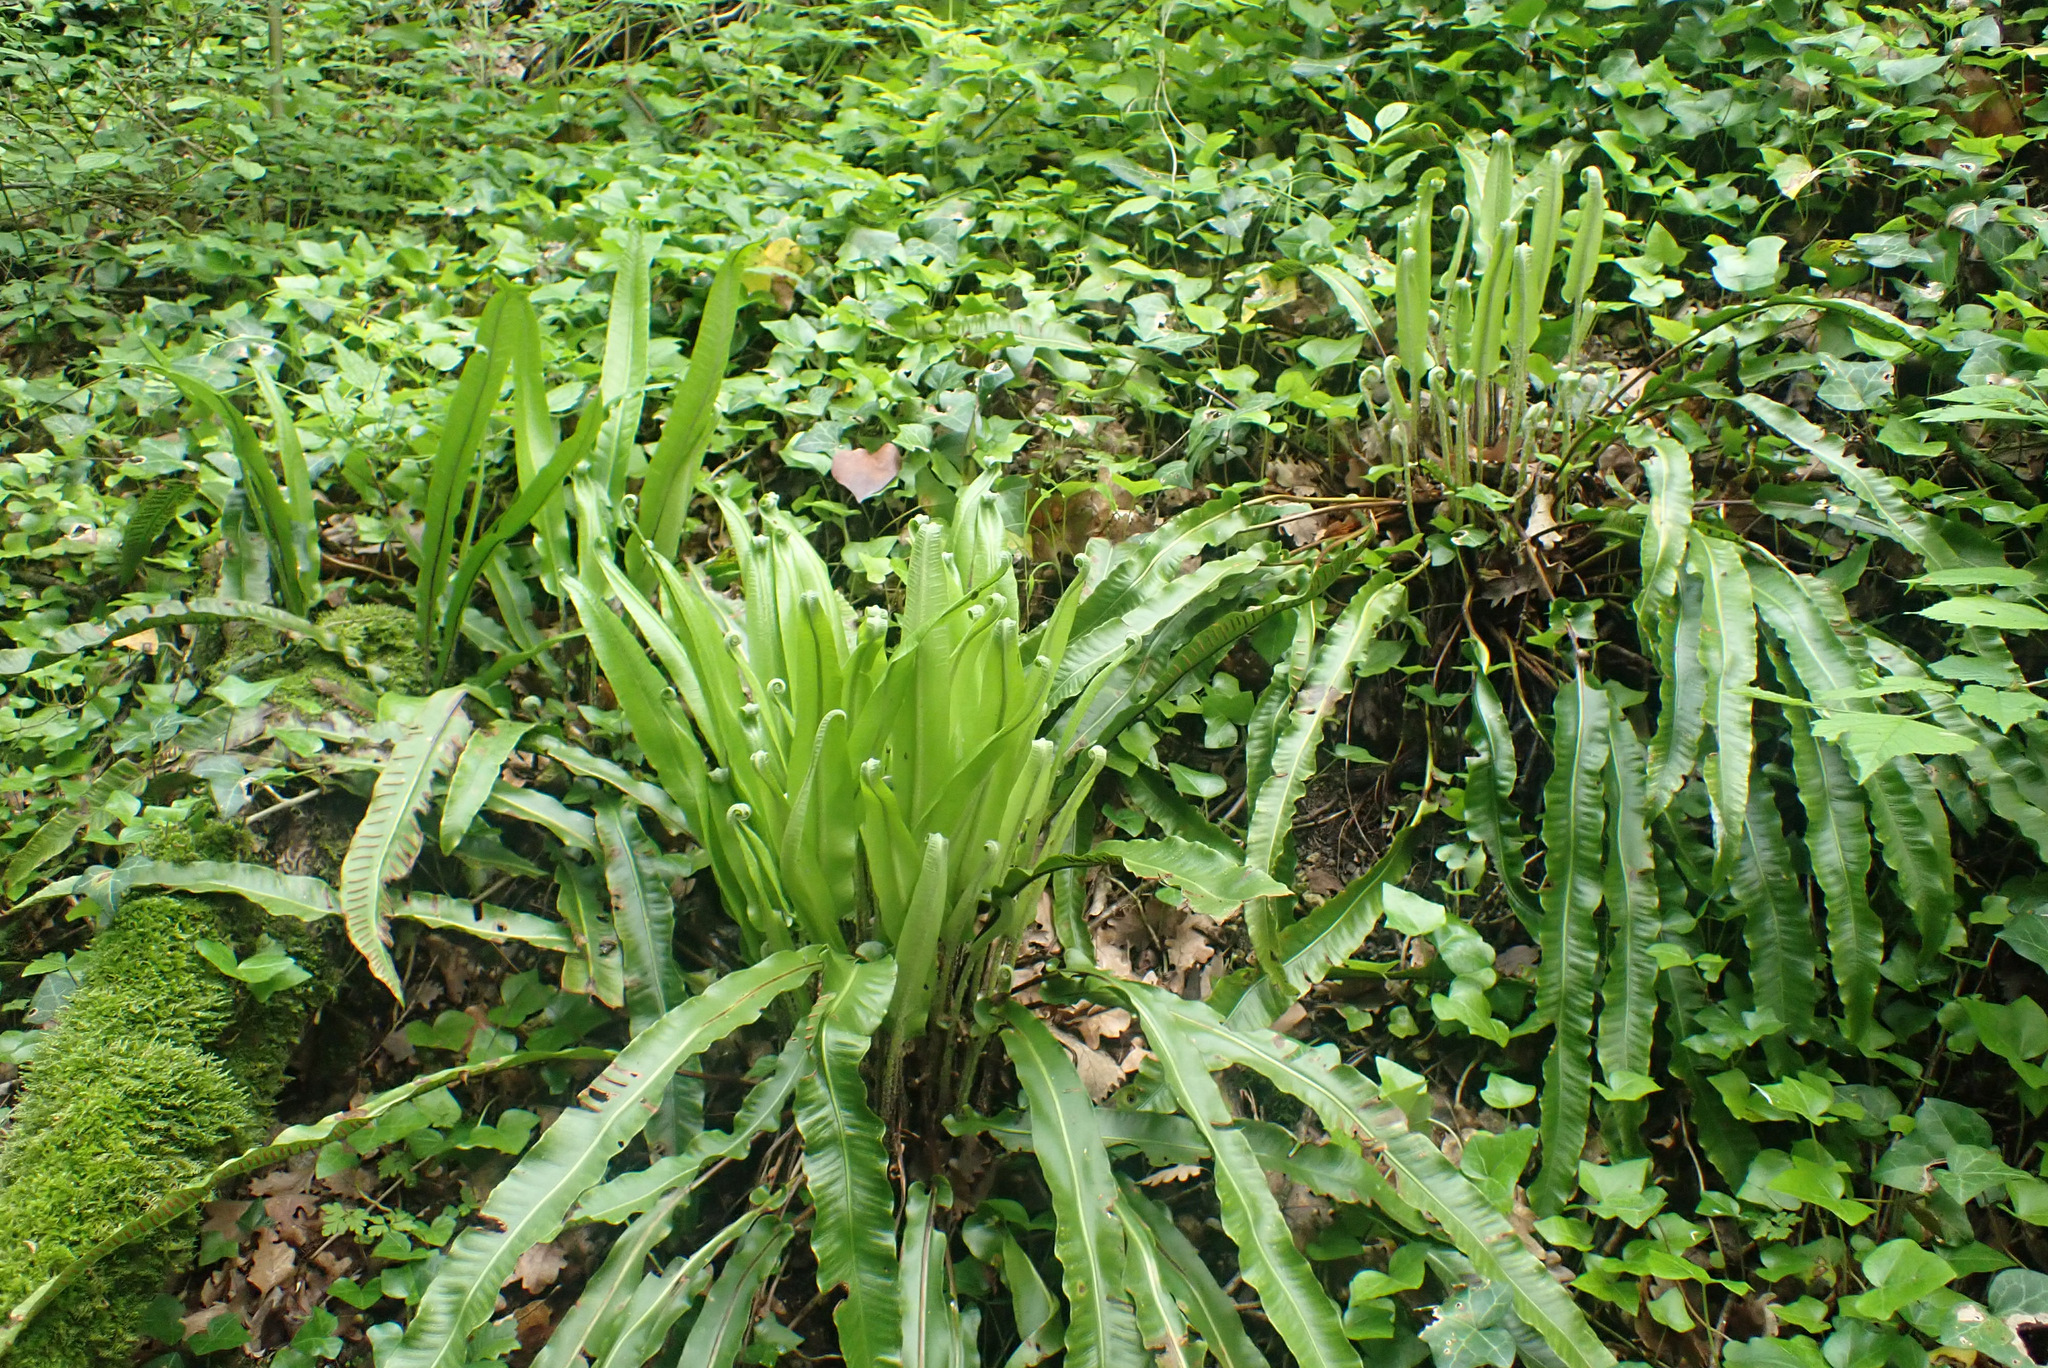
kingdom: Plantae
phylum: Tracheophyta
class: Polypodiopsida
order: Polypodiales
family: Aspleniaceae
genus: Asplenium
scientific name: Asplenium scolopendrium
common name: Hart's-tongue fern
